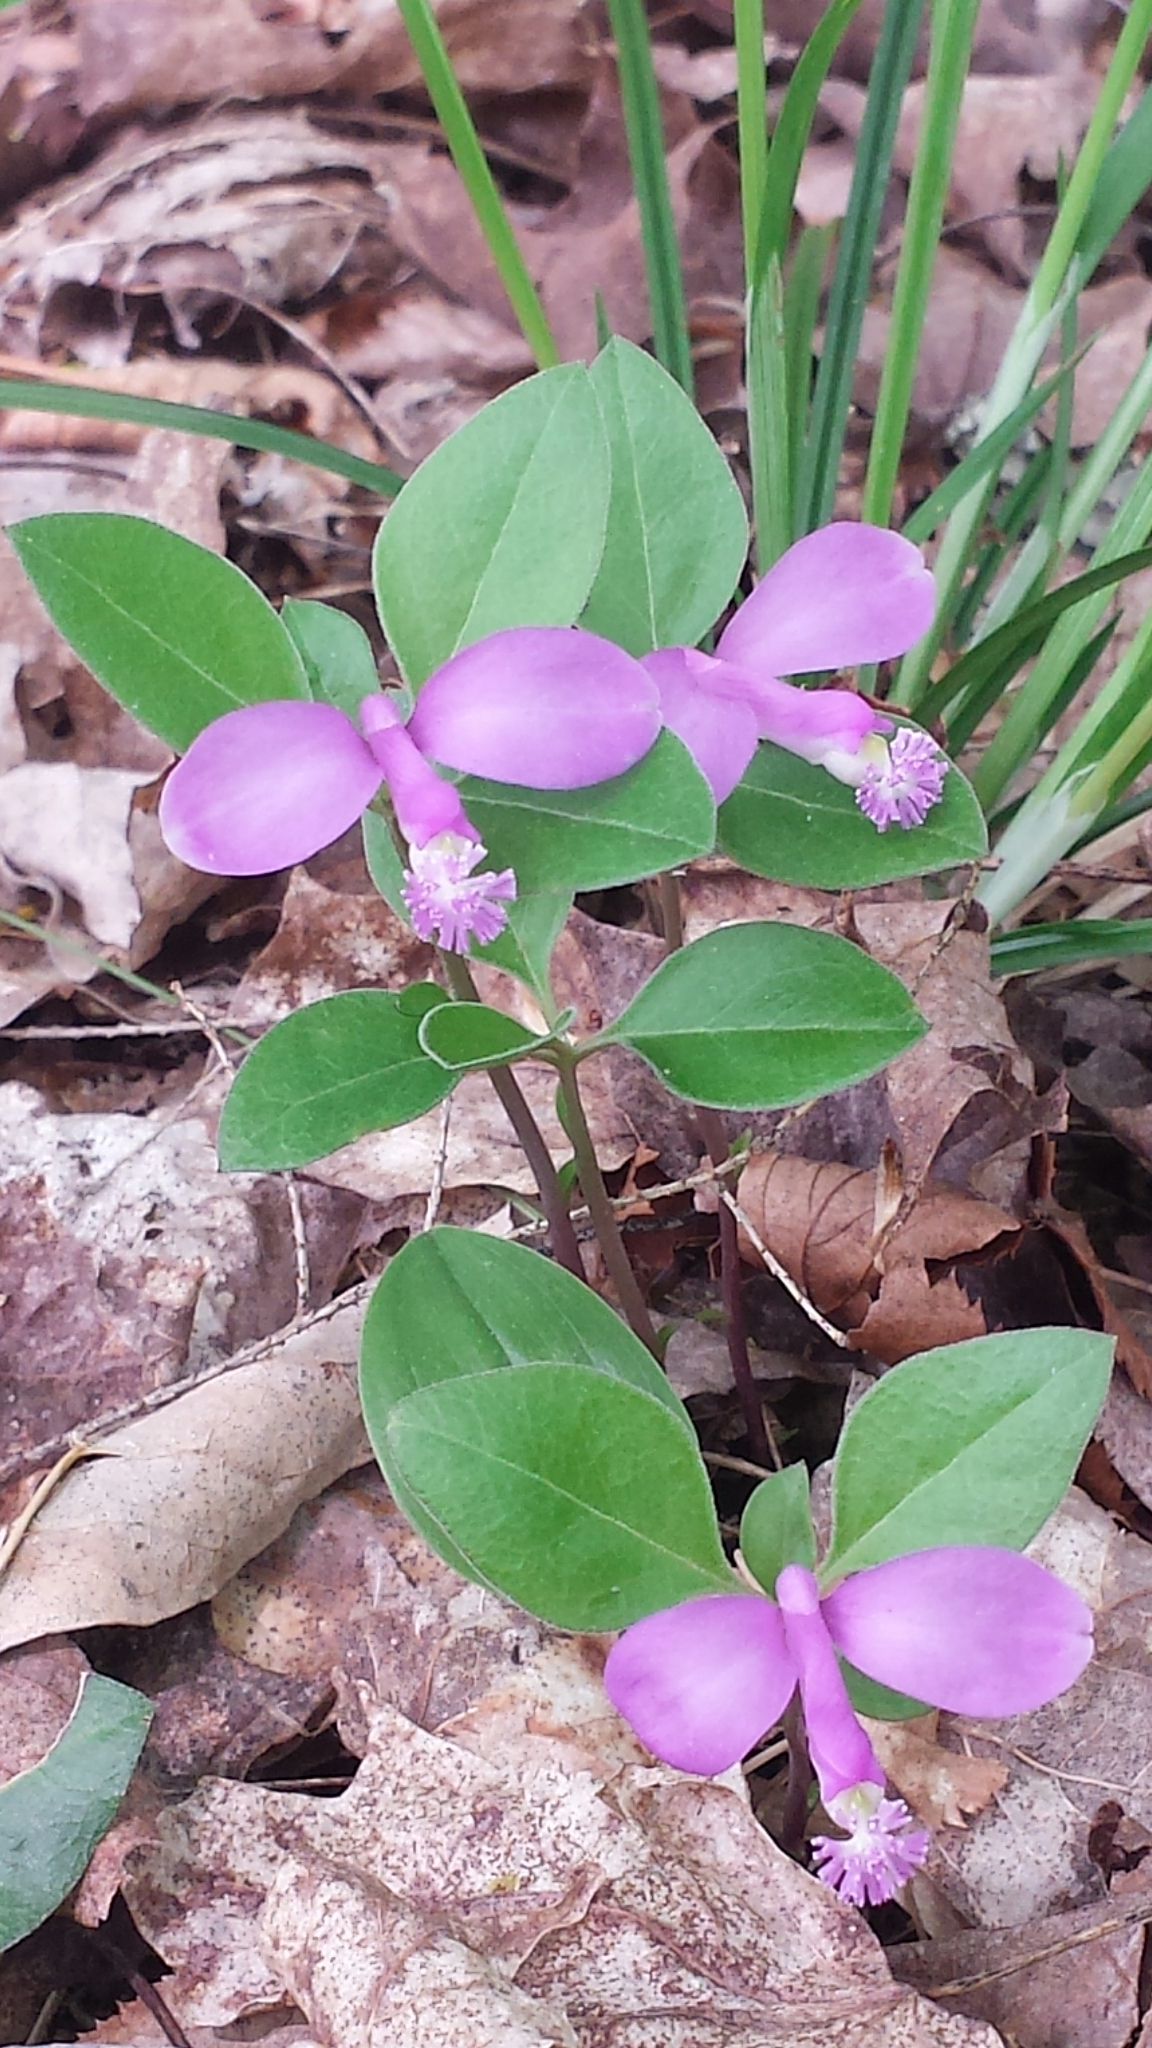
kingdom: Plantae
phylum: Tracheophyta
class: Magnoliopsida
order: Fabales
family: Polygalaceae
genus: Polygaloides
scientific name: Polygaloides paucifolia
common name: Bird-on-the-wing
